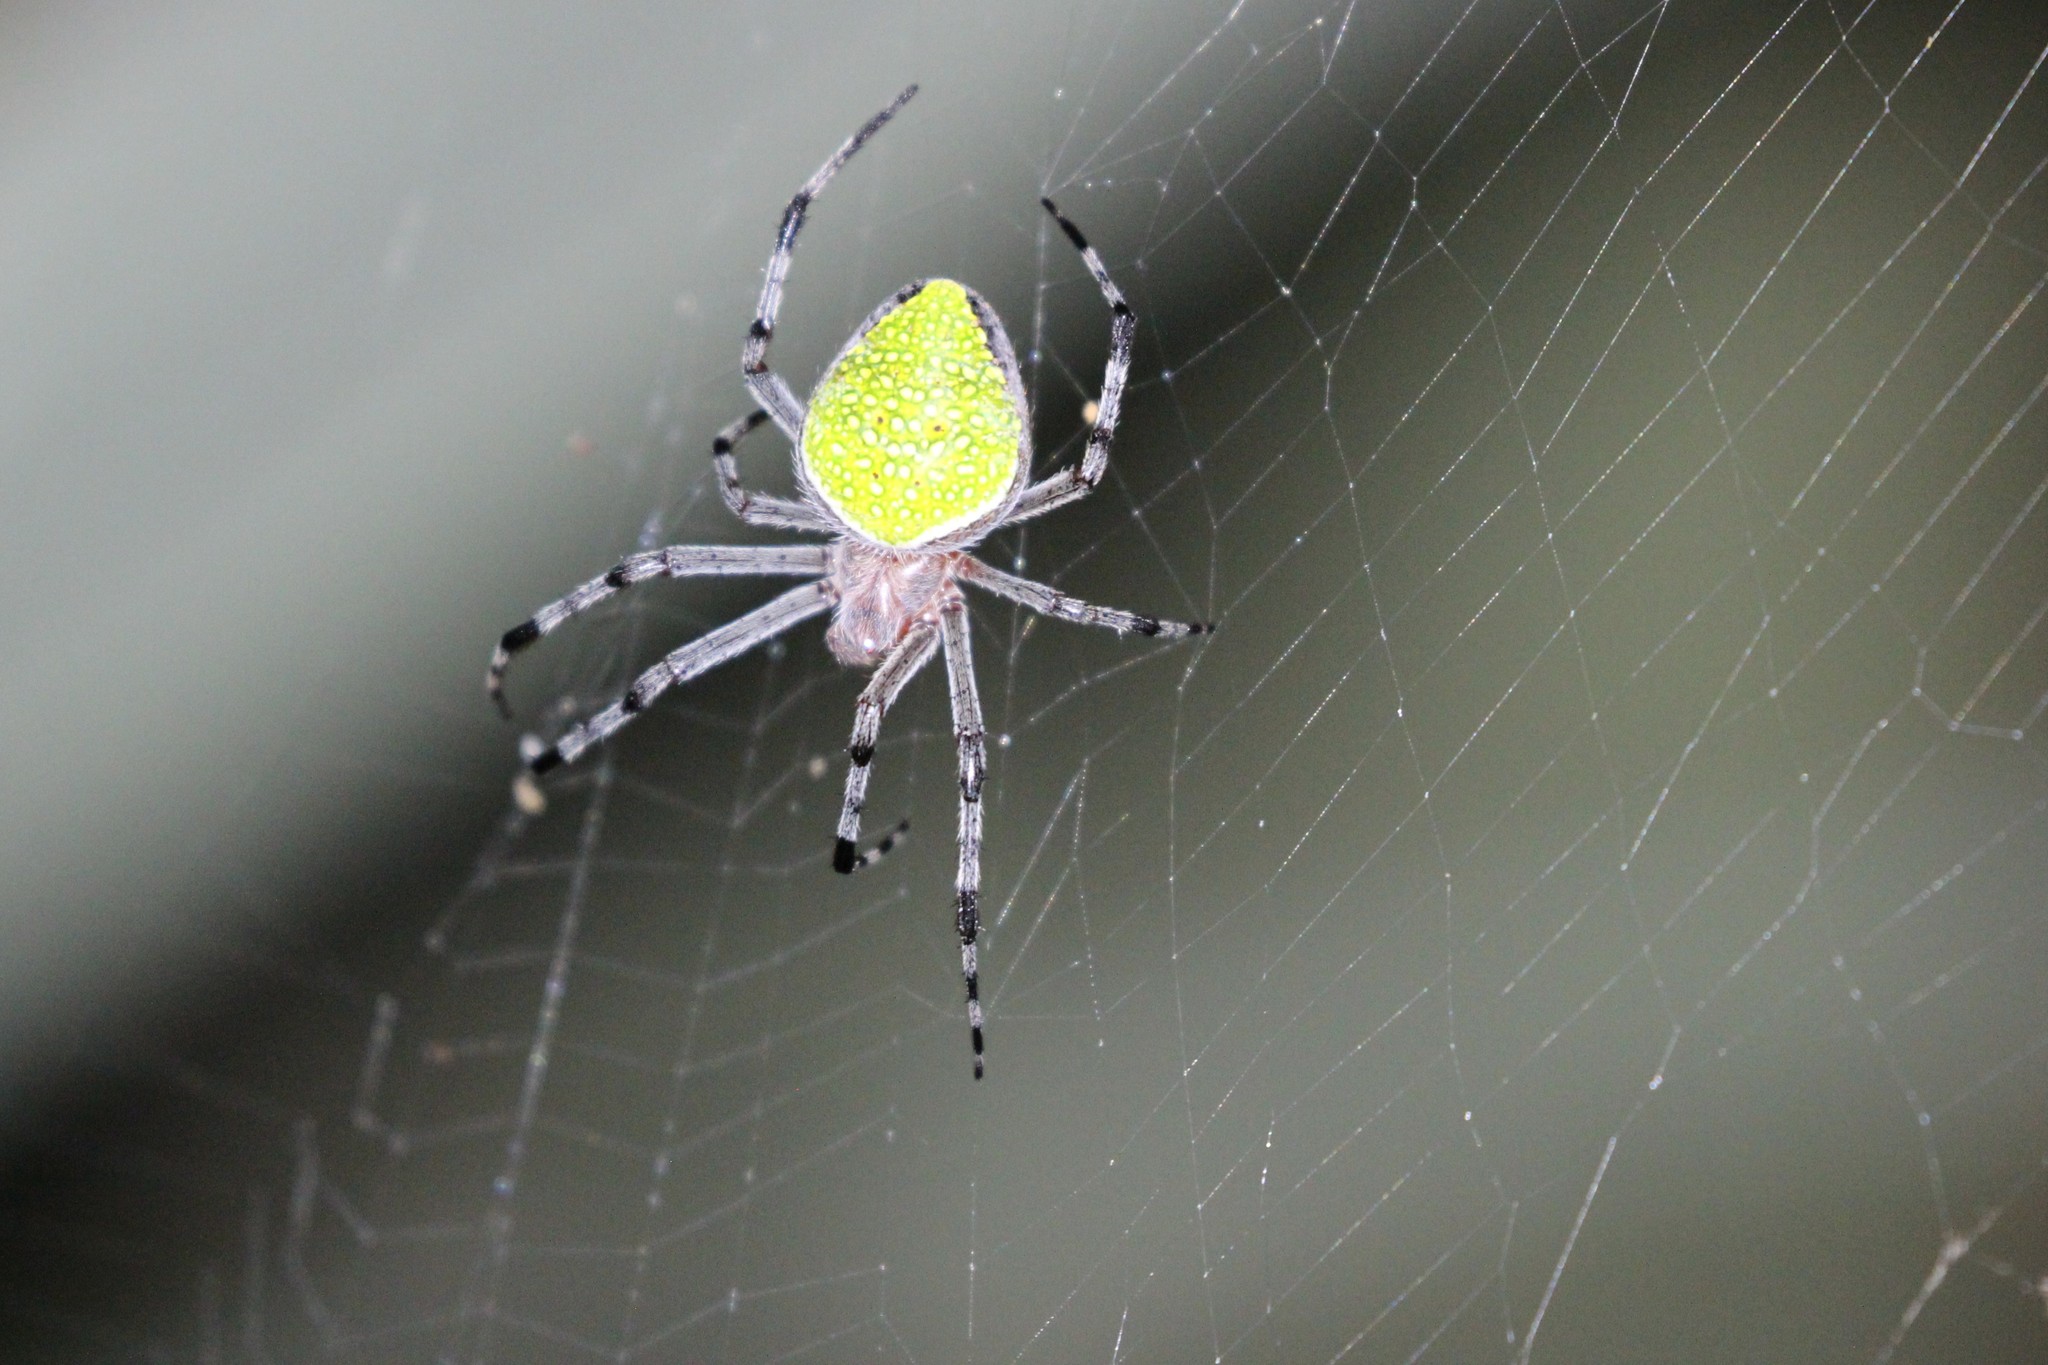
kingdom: Animalia
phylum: Arthropoda
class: Arachnida
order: Araneae
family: Araneidae
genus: Eriophora
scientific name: Eriophora nephiloides
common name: Orb weavers
